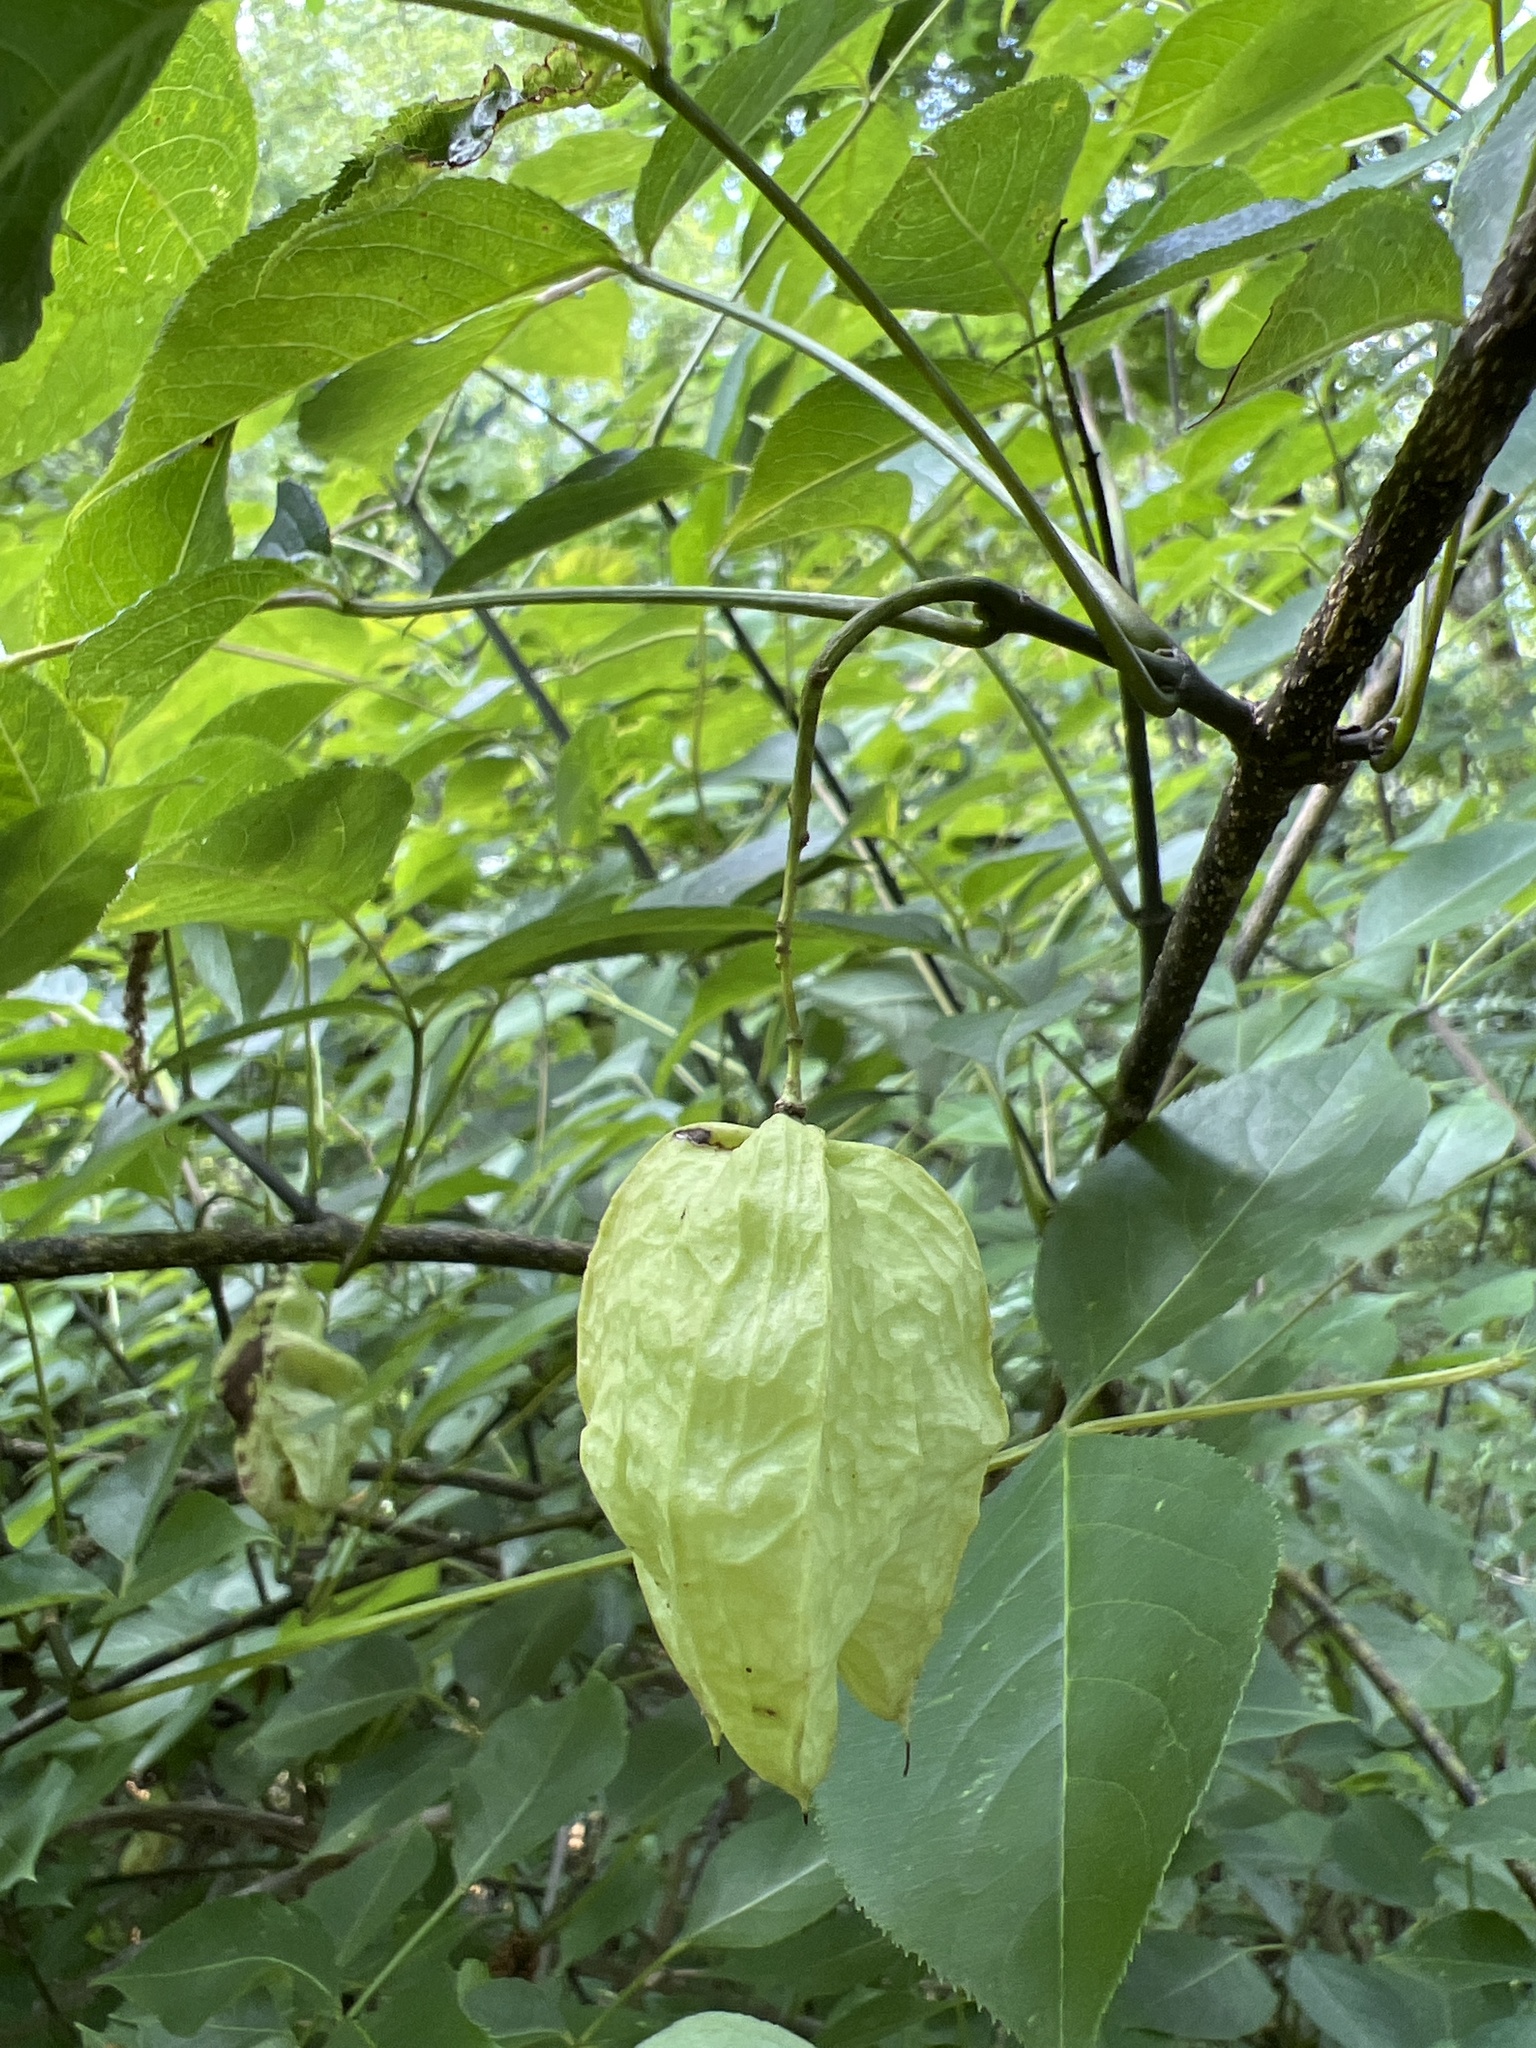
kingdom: Plantae
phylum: Tracheophyta
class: Magnoliopsida
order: Crossosomatales
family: Staphyleaceae
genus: Staphylea
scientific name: Staphylea trifolia
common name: American bladdernut
